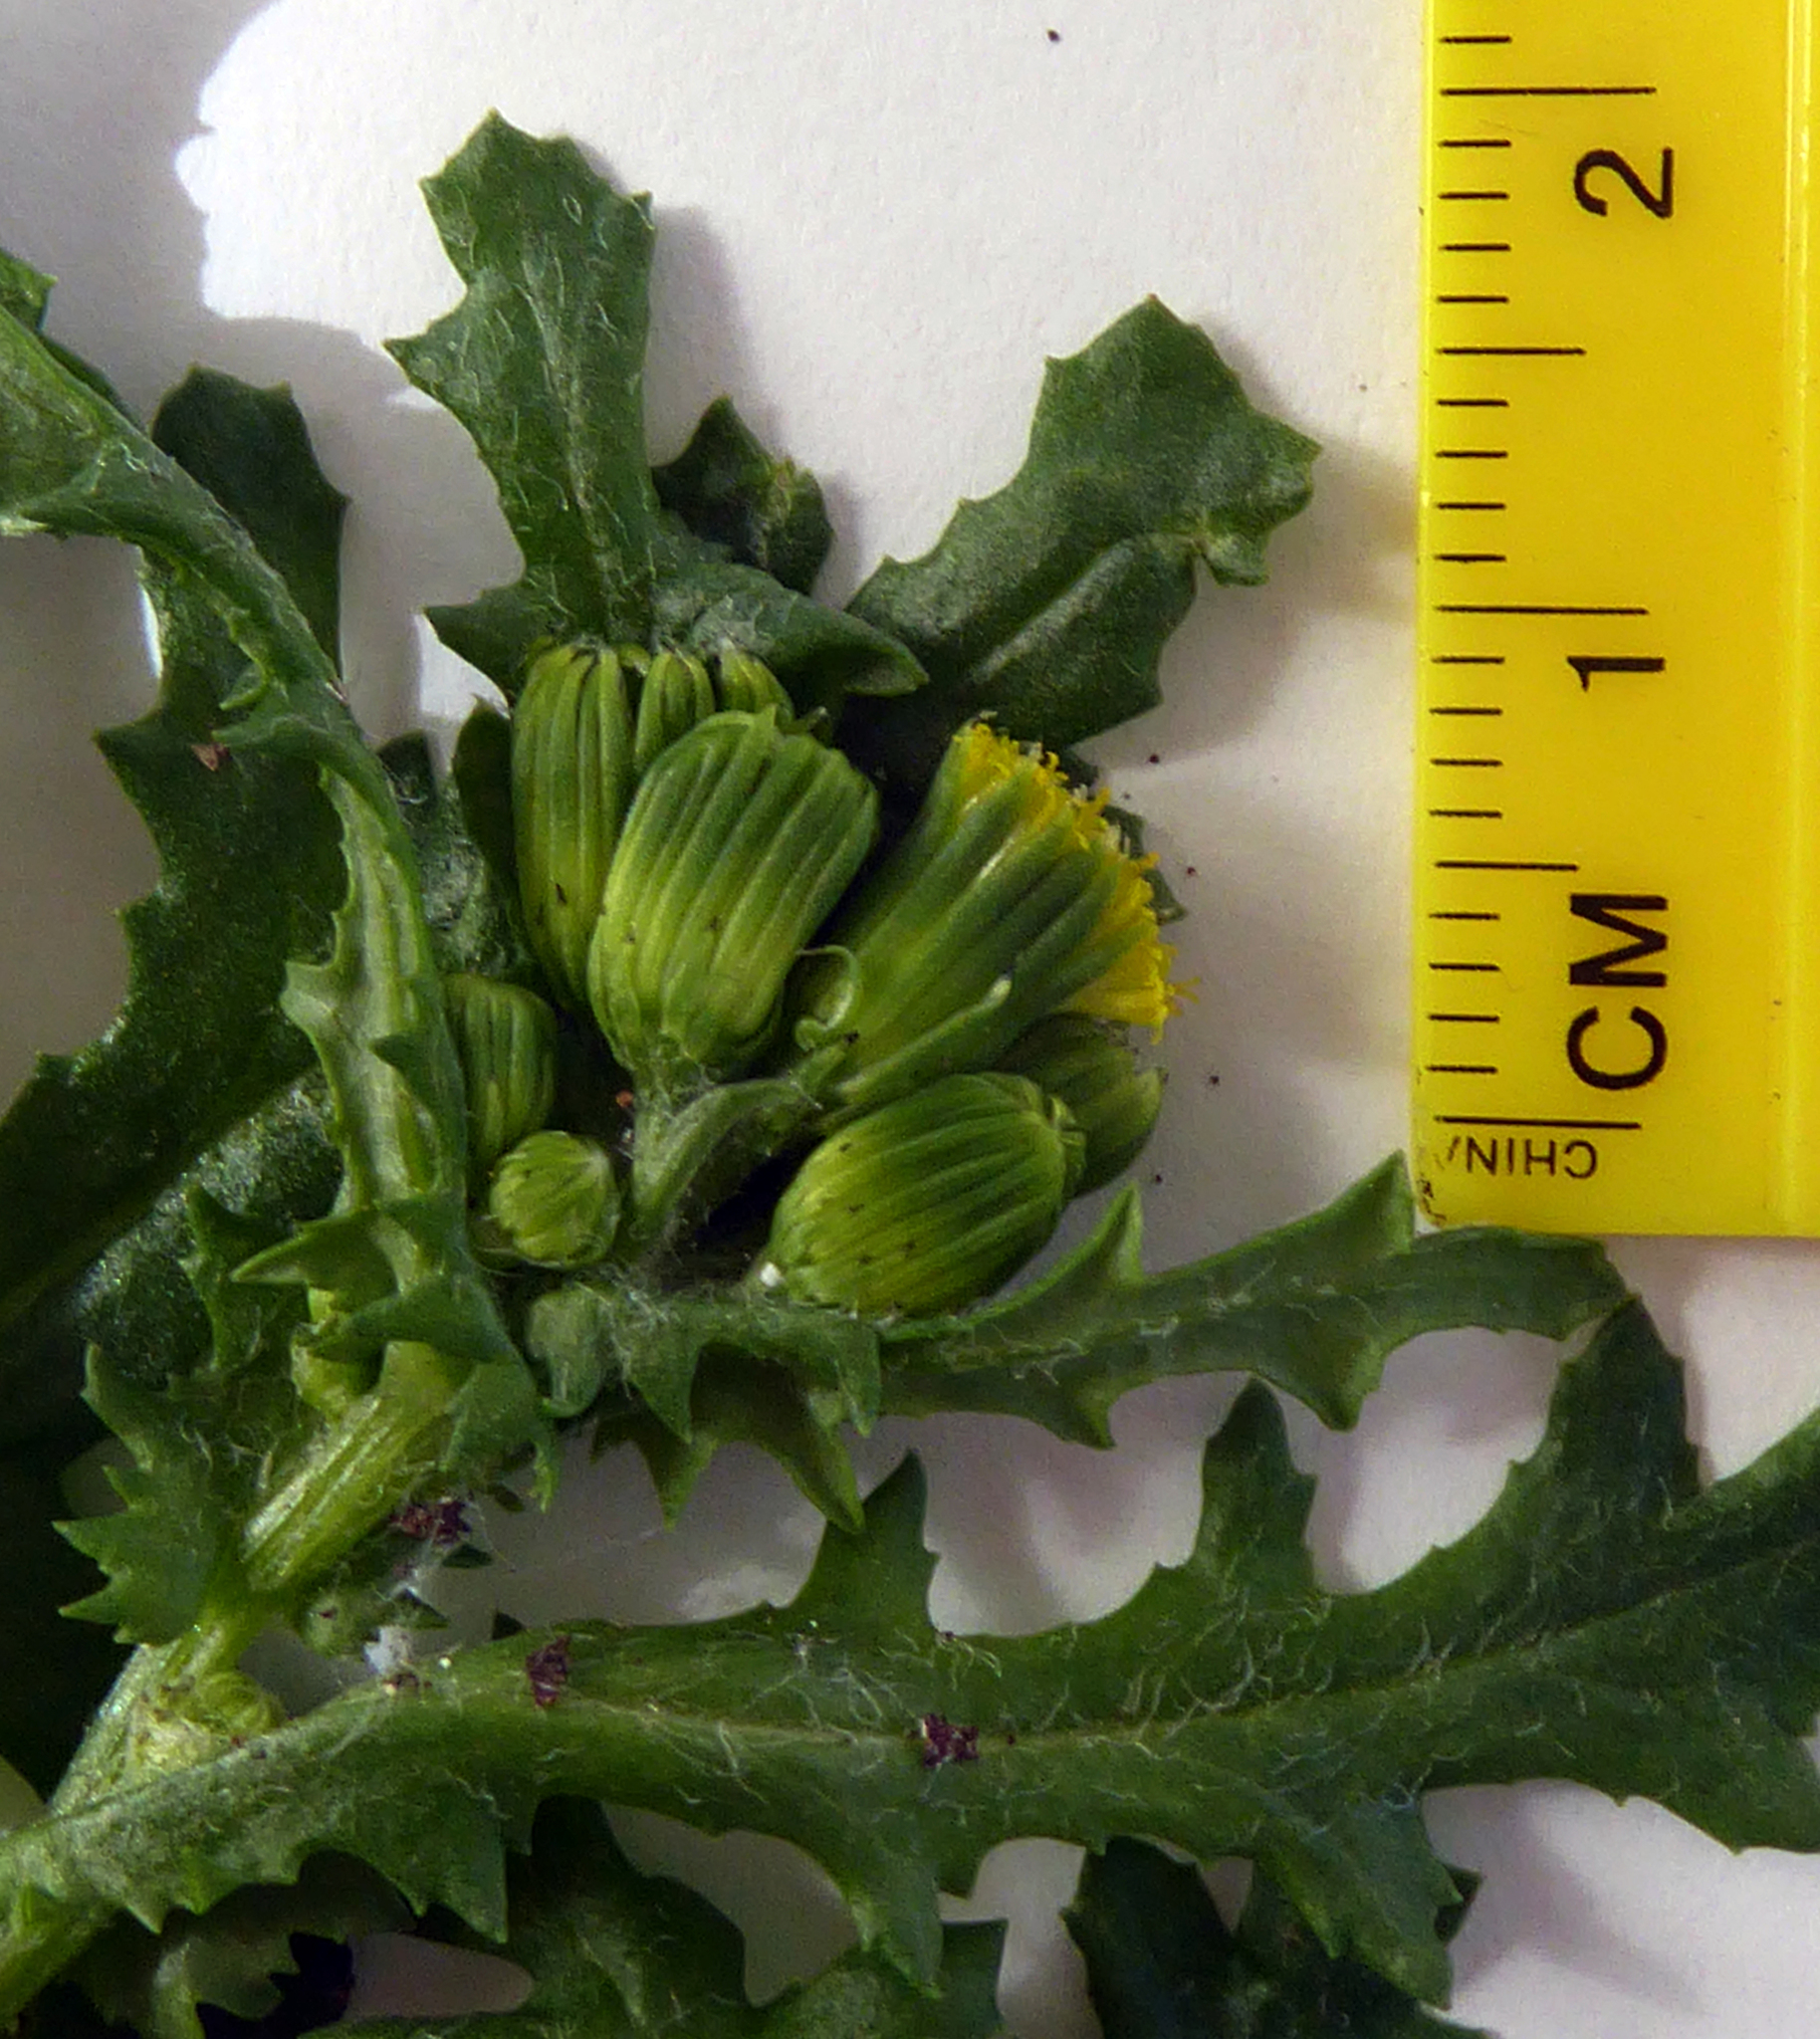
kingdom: Plantae
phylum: Tracheophyta
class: Magnoliopsida
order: Asterales
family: Asteraceae
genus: Senecio
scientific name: Senecio vulgaris
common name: Old-man-in-the-spring
